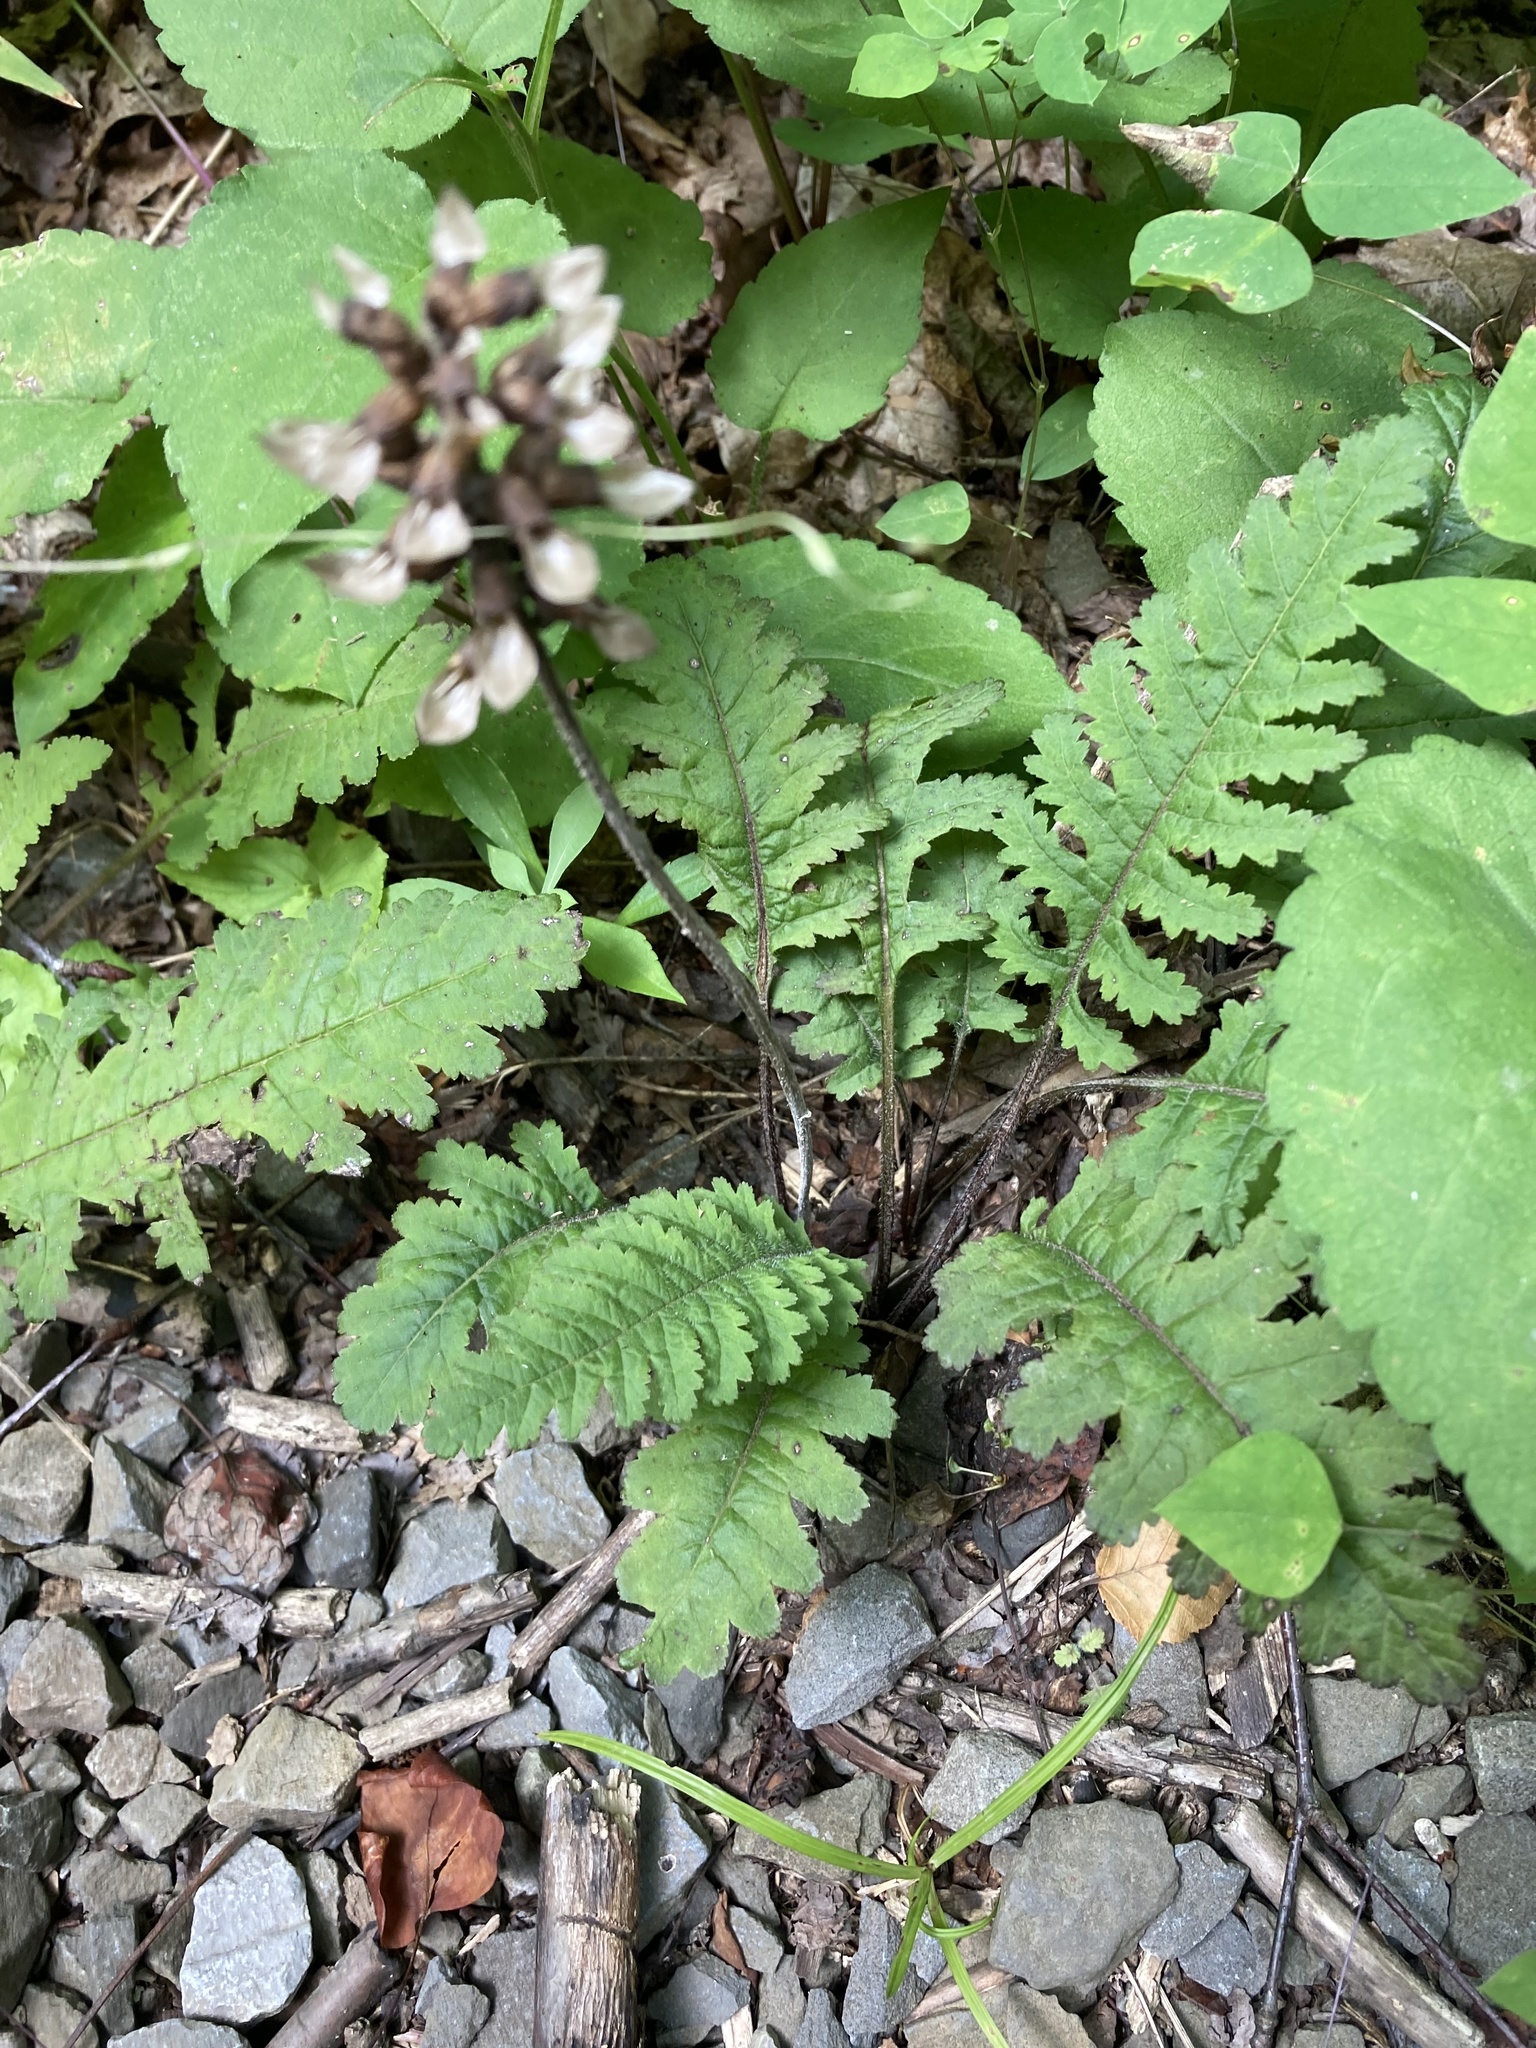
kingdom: Plantae
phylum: Tracheophyta
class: Magnoliopsida
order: Lamiales
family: Orobanchaceae
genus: Pedicularis
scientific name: Pedicularis canadensis
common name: Early lousewort
